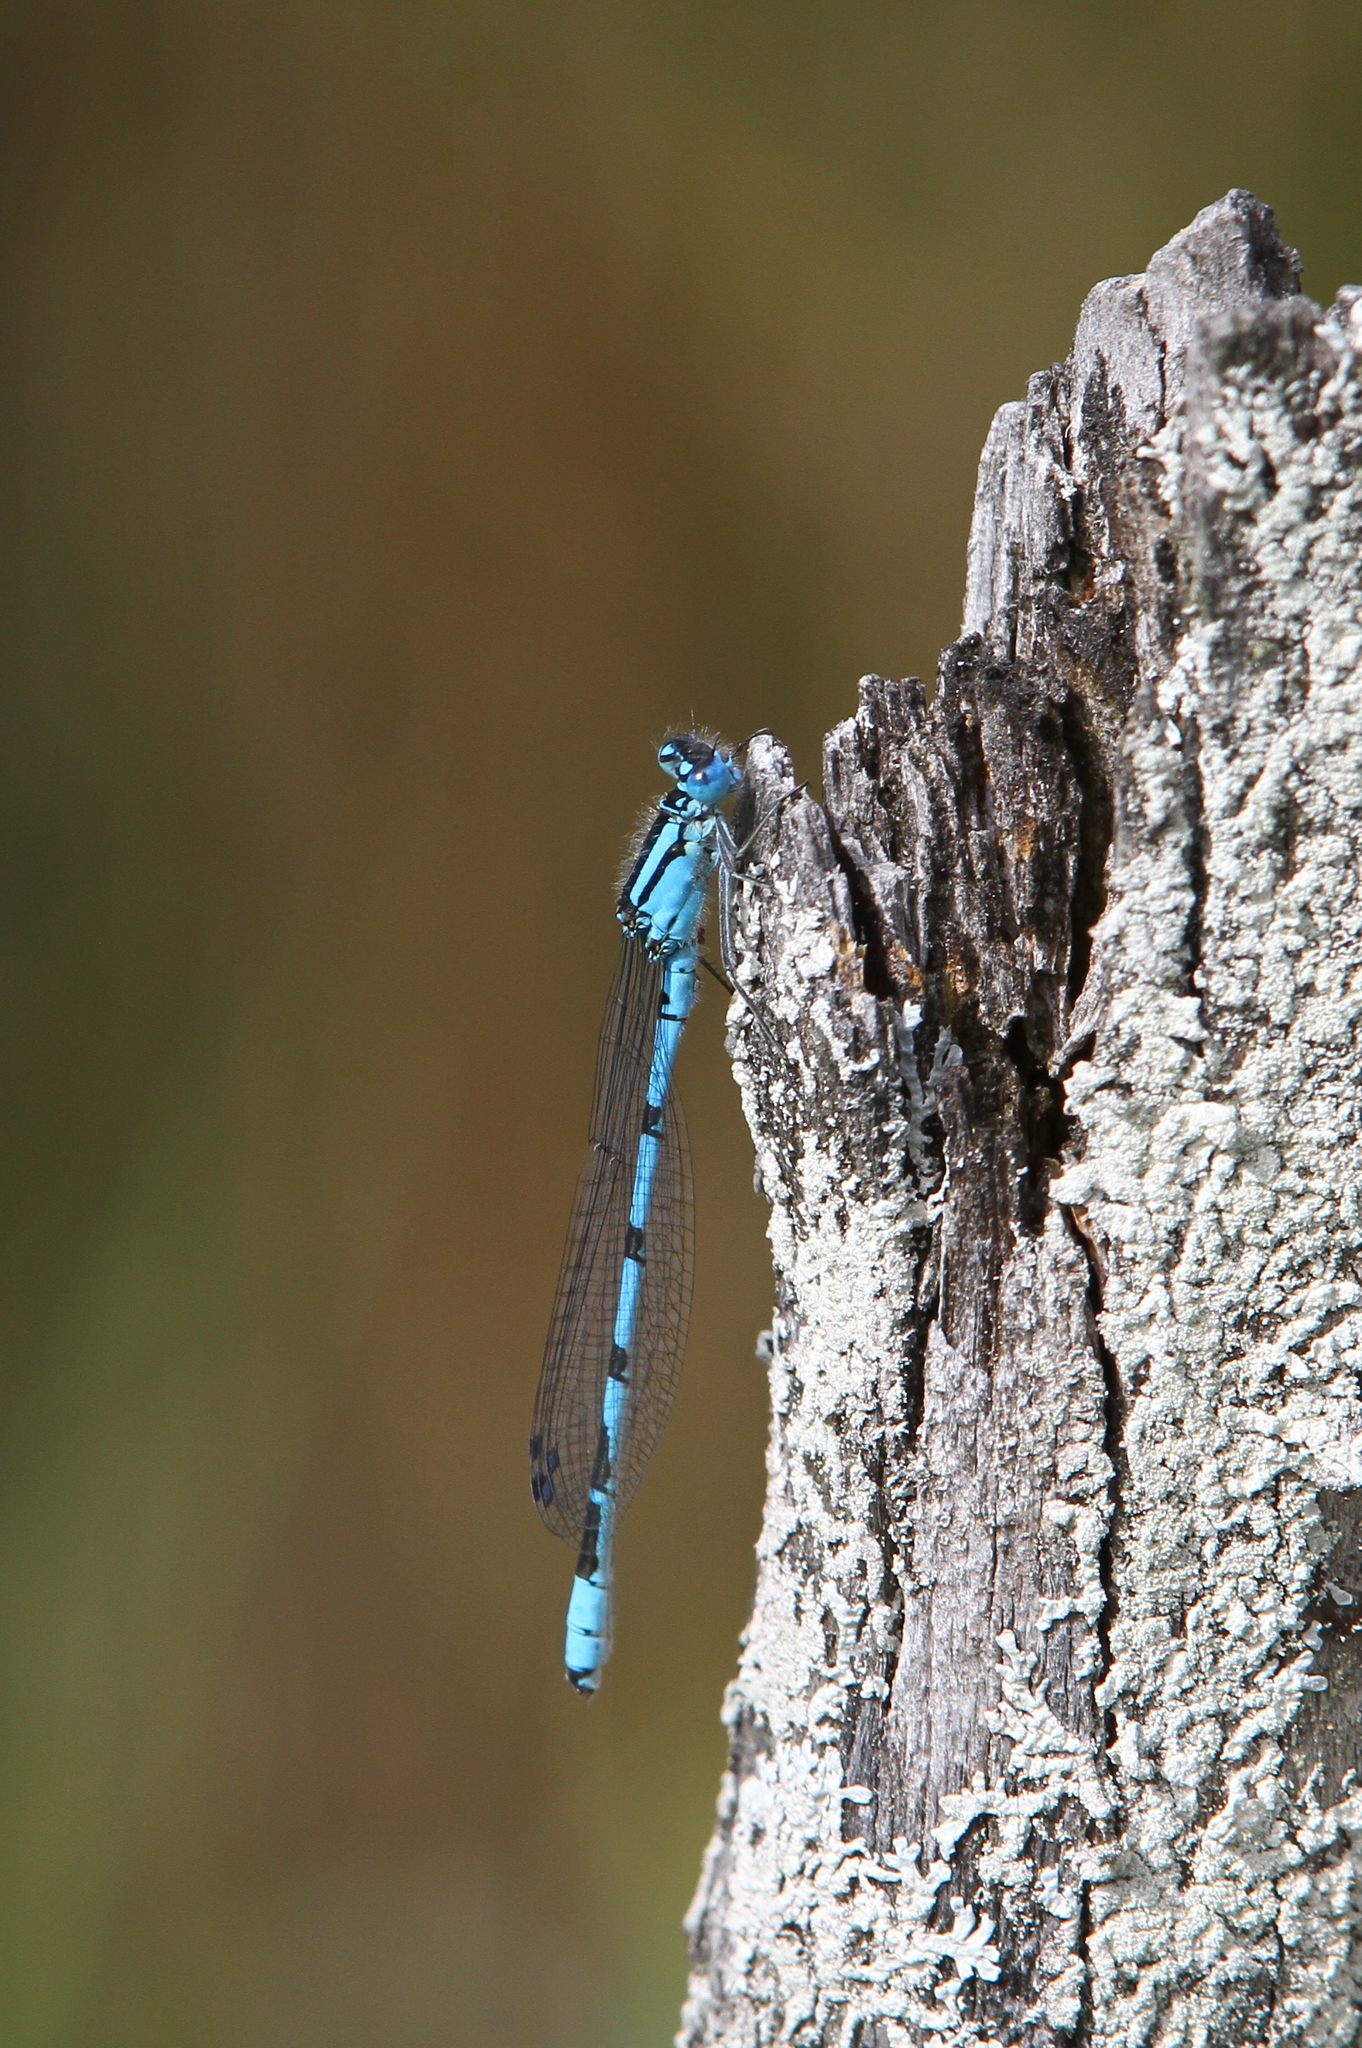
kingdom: Animalia
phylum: Arthropoda
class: Insecta
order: Odonata
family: Coenagrionidae
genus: Enallagma
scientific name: Enallagma cyathigerum
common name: Common blue damselfly
